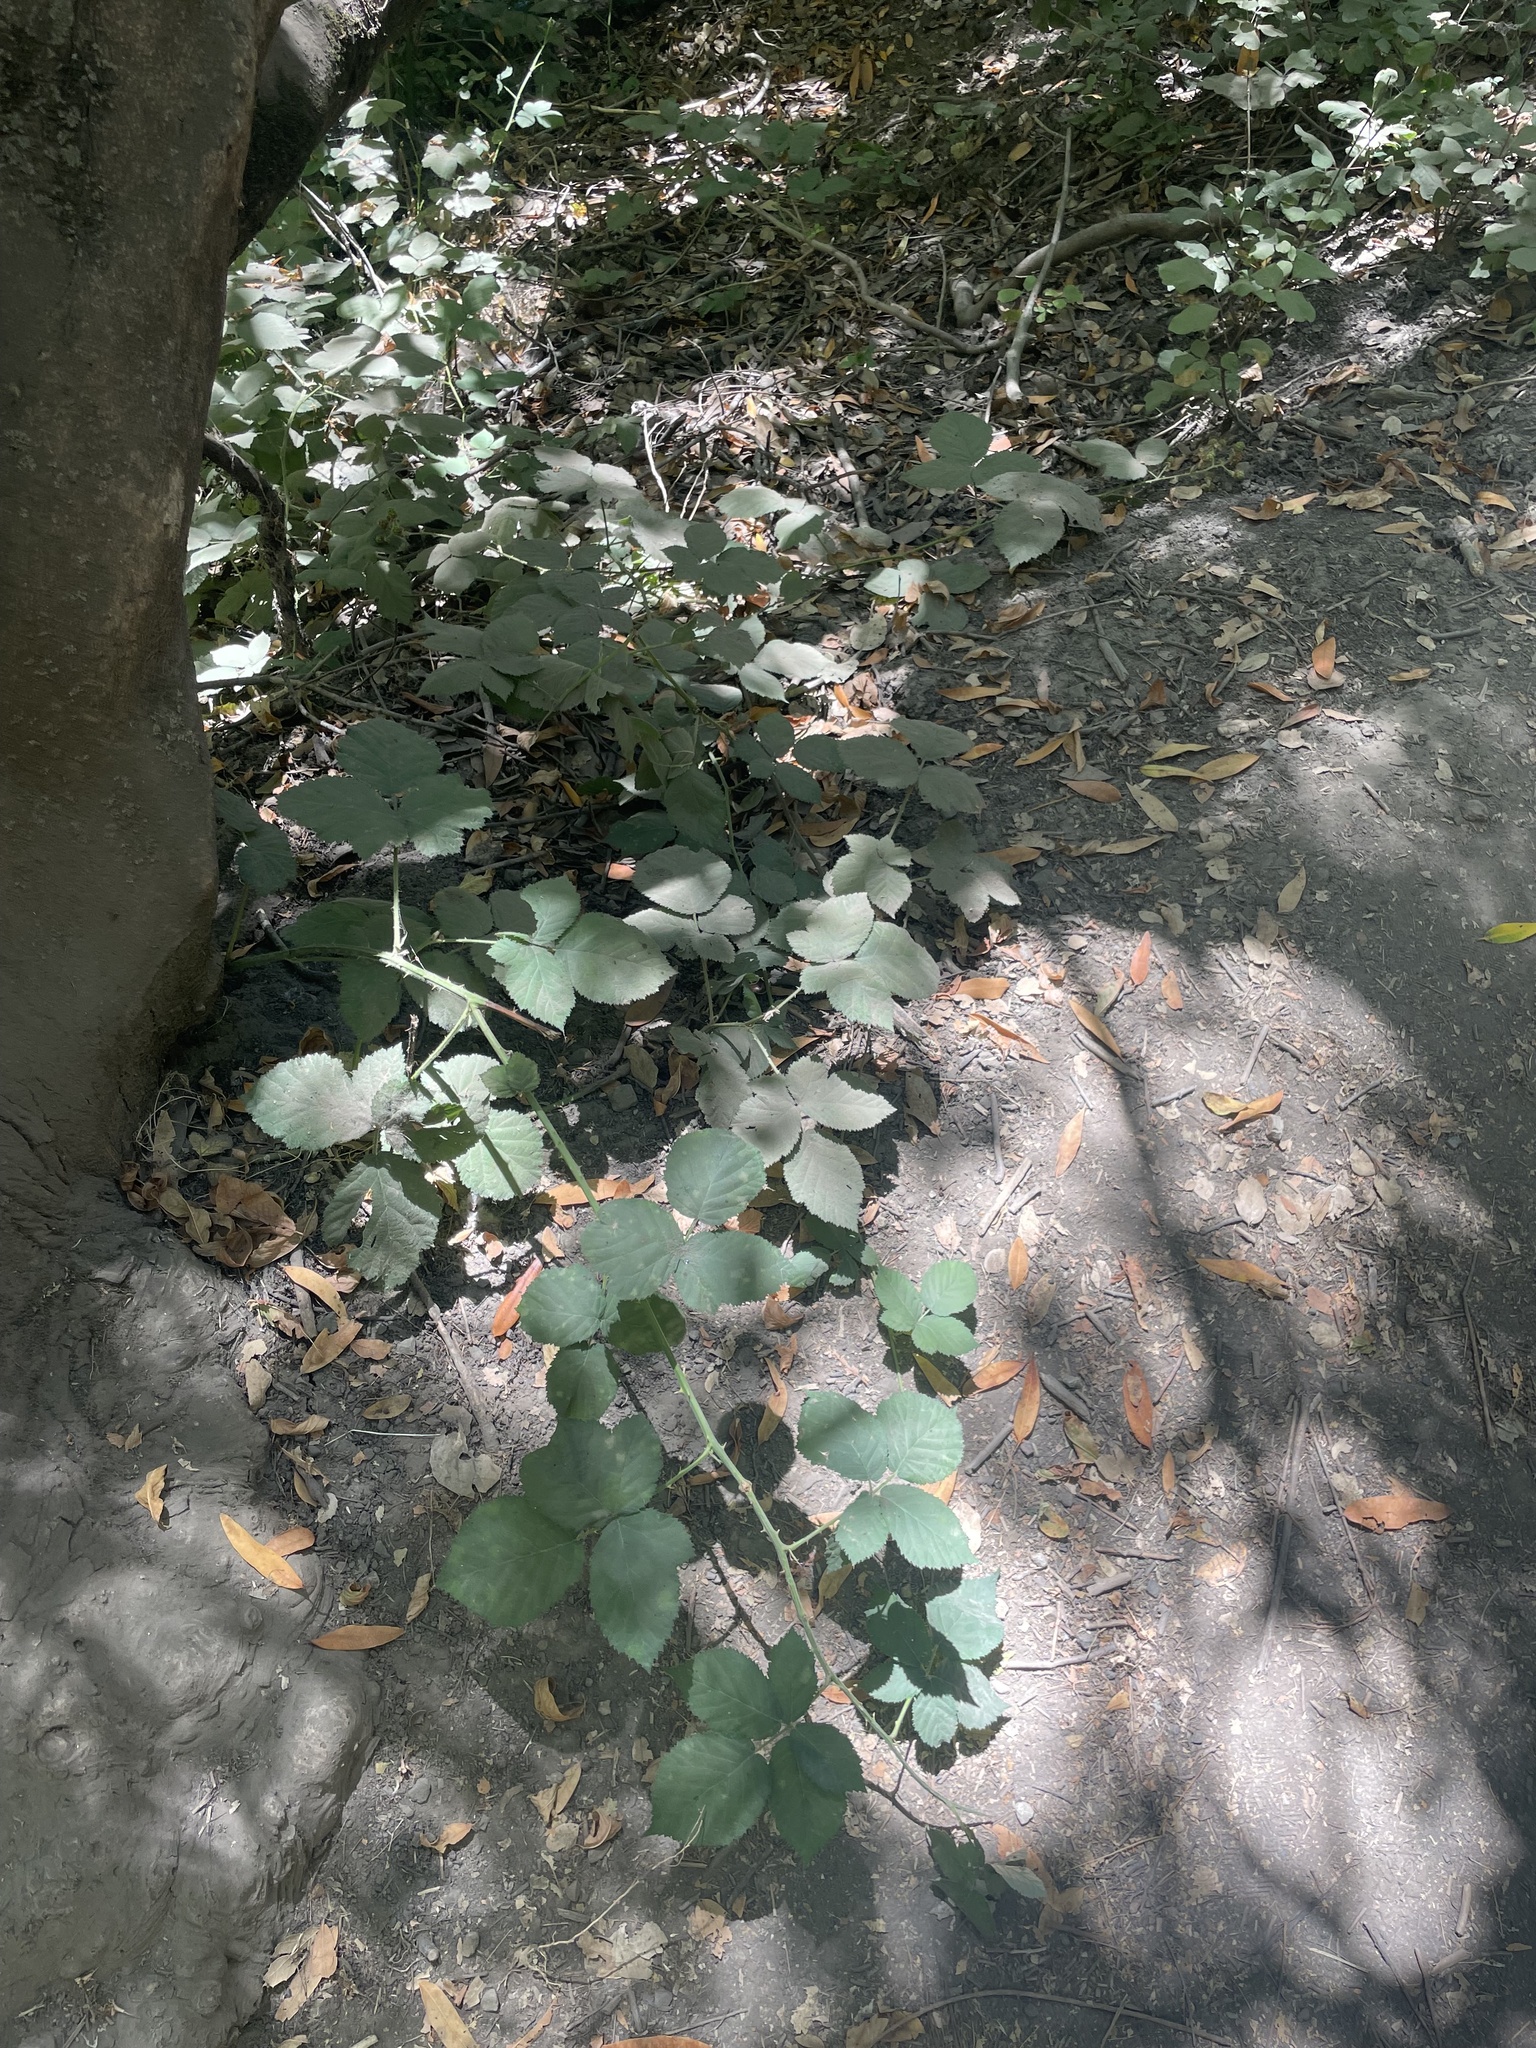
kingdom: Plantae
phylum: Tracheophyta
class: Magnoliopsida
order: Rosales
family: Rosaceae
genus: Rubus
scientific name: Rubus armeniacus
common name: Himalayan blackberry
